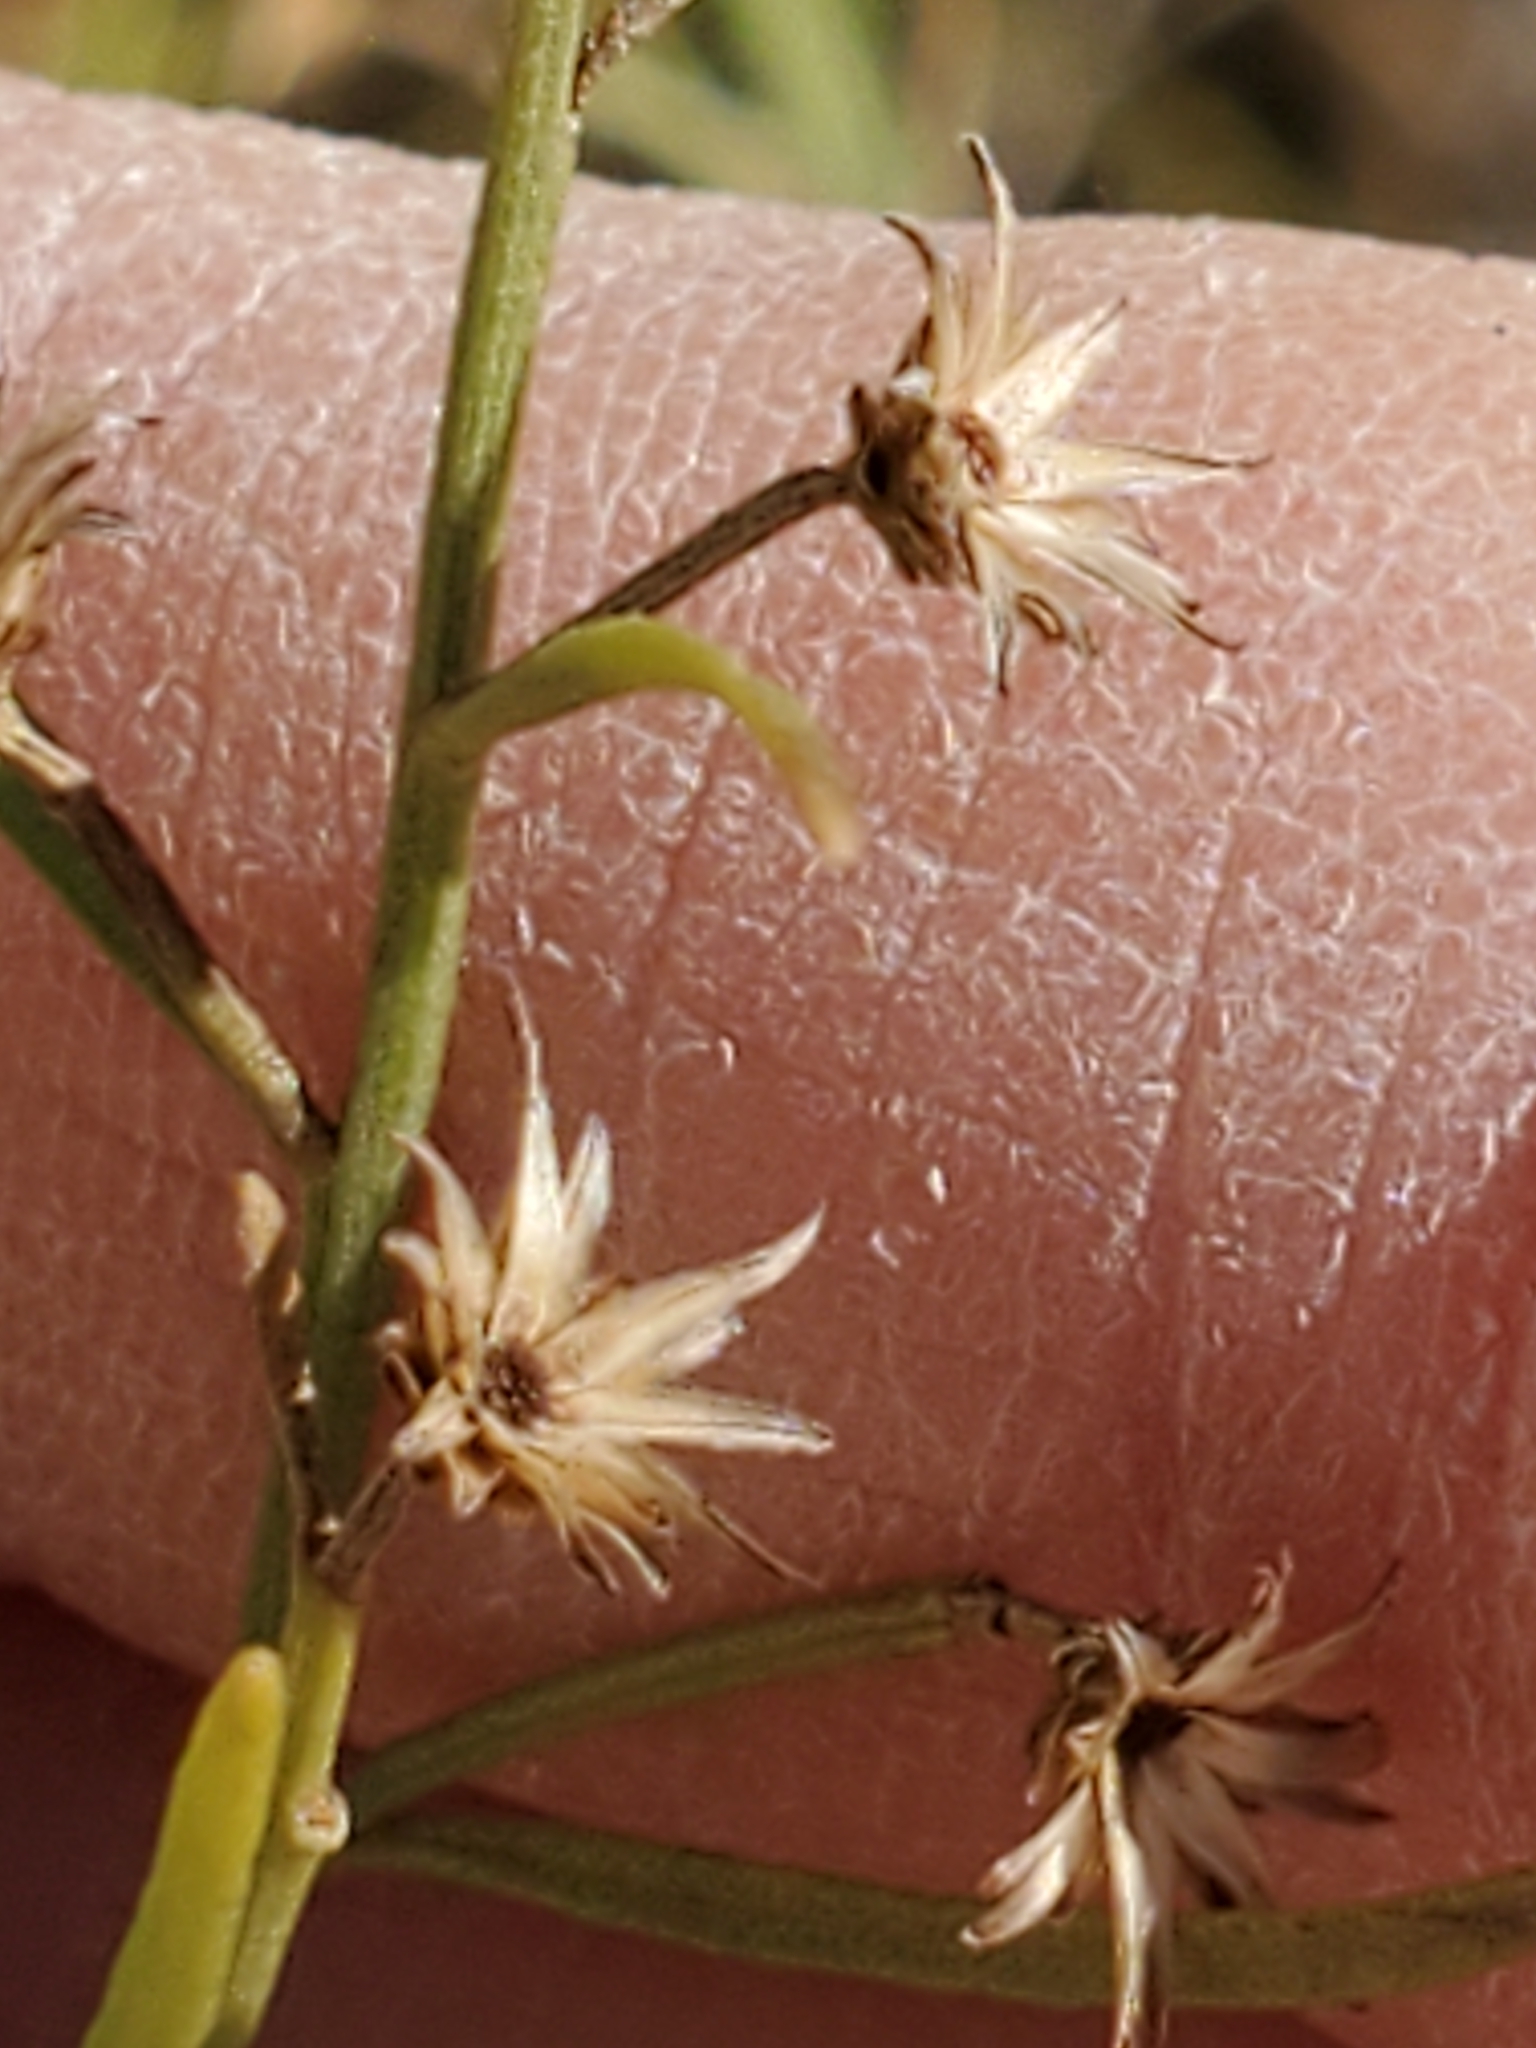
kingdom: Plantae
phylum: Tracheophyta
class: Magnoliopsida
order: Asterales
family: Asteraceae
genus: Baccharis
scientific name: Baccharis neglecta
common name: Roosevelt-weed
